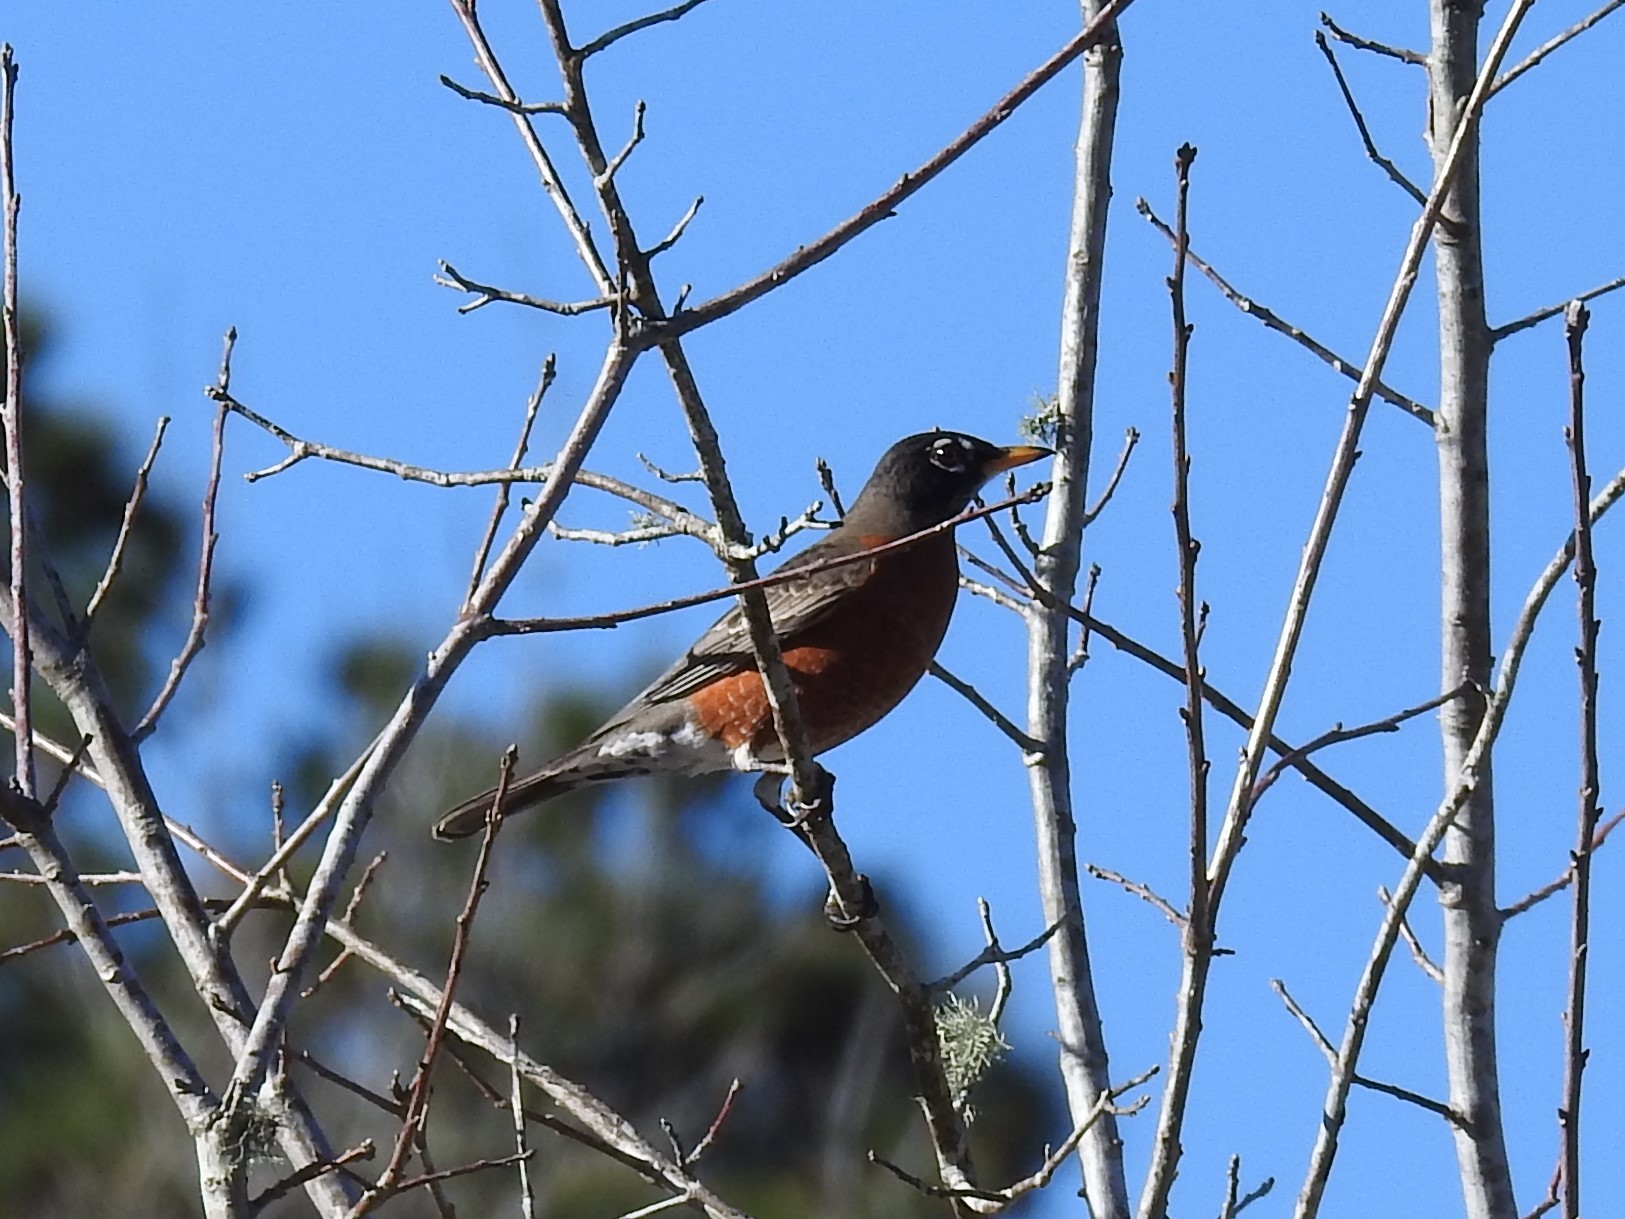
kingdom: Animalia
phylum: Chordata
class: Aves
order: Passeriformes
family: Turdidae
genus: Turdus
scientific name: Turdus migratorius
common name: American robin
